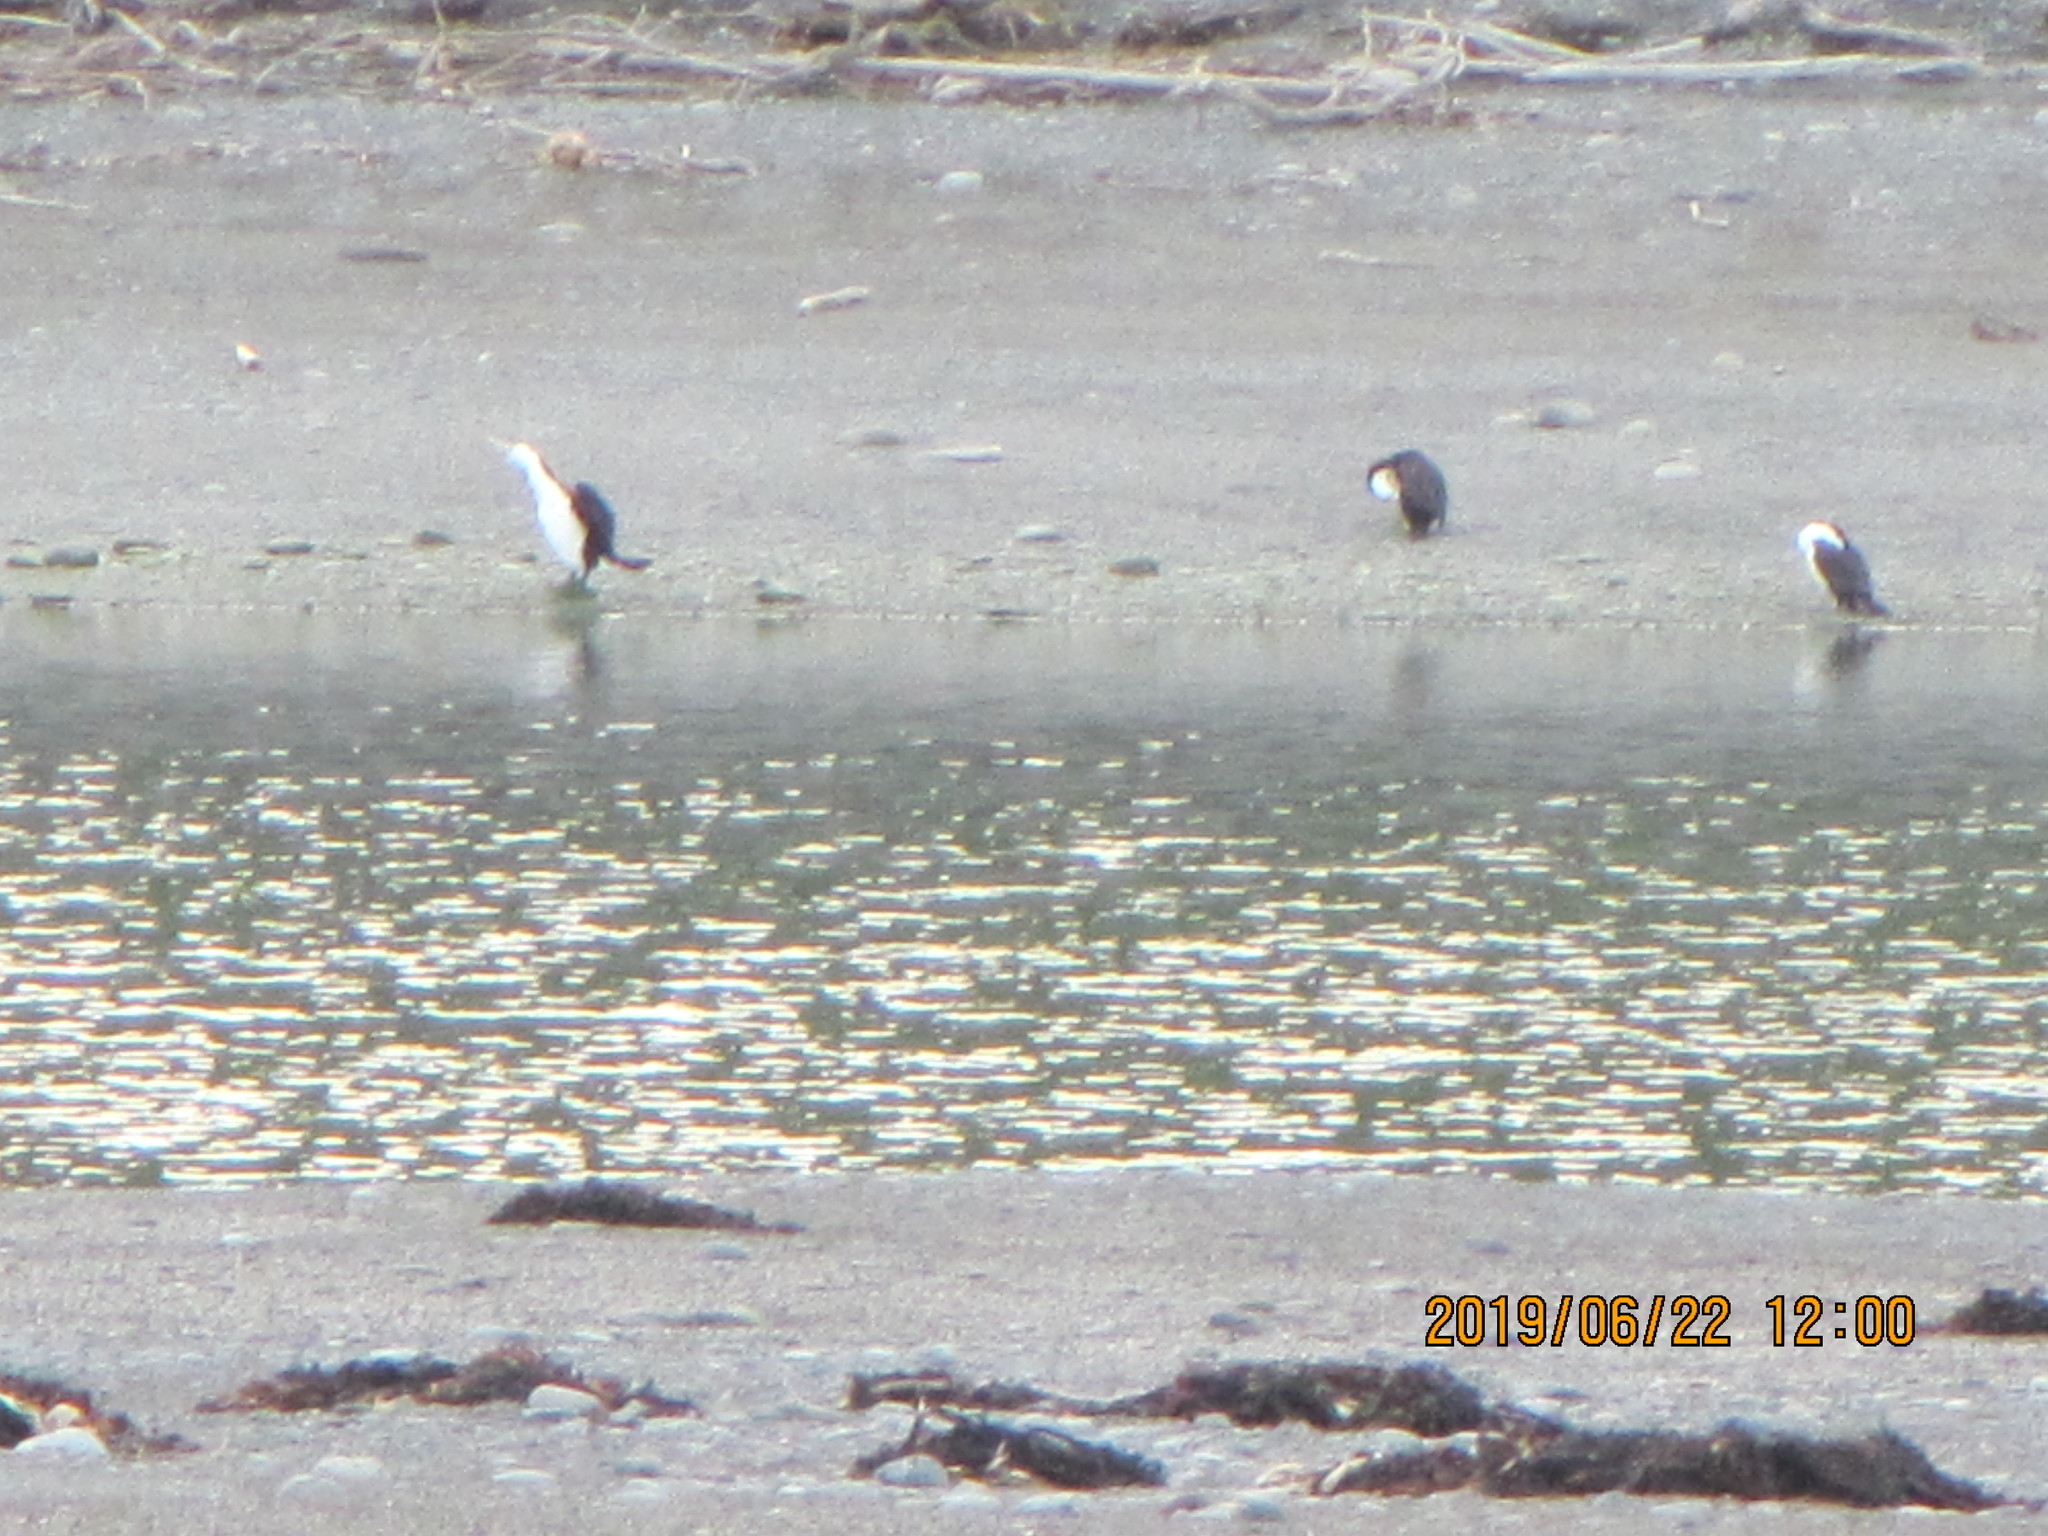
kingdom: Animalia
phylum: Chordata
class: Aves
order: Suliformes
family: Phalacrocoracidae
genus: Phalacrocorax
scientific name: Phalacrocorax varius
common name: Pied cormorant
